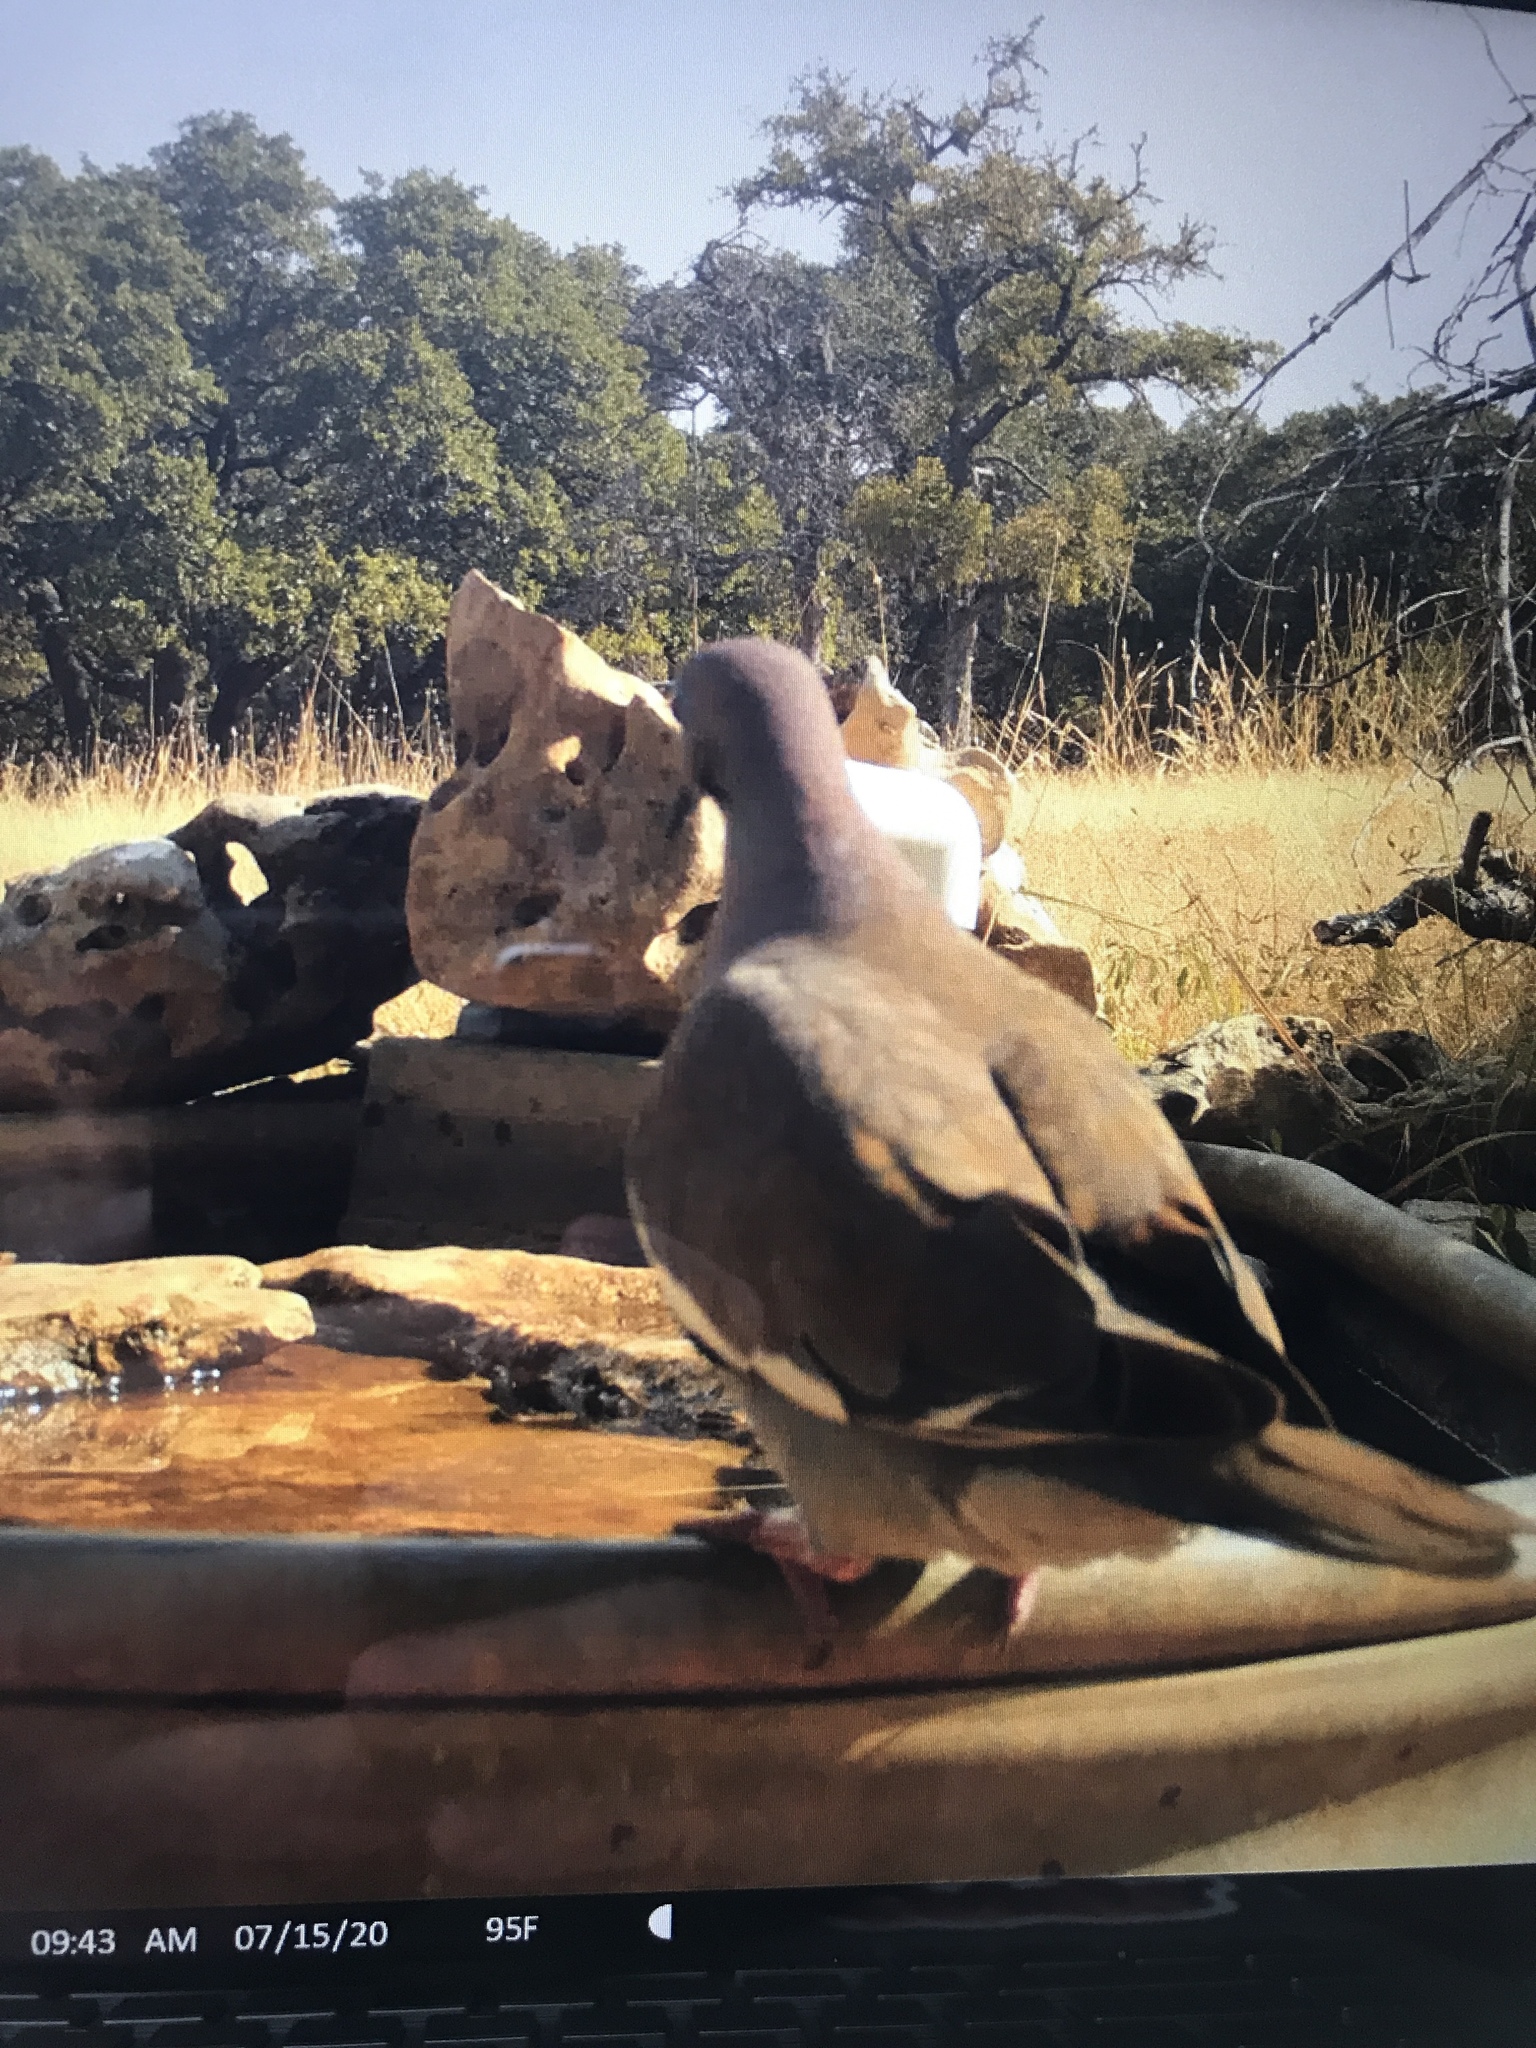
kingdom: Animalia
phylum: Chordata
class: Aves
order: Columbiformes
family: Columbidae
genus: Zenaida
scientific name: Zenaida asiatica
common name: White-winged dove
